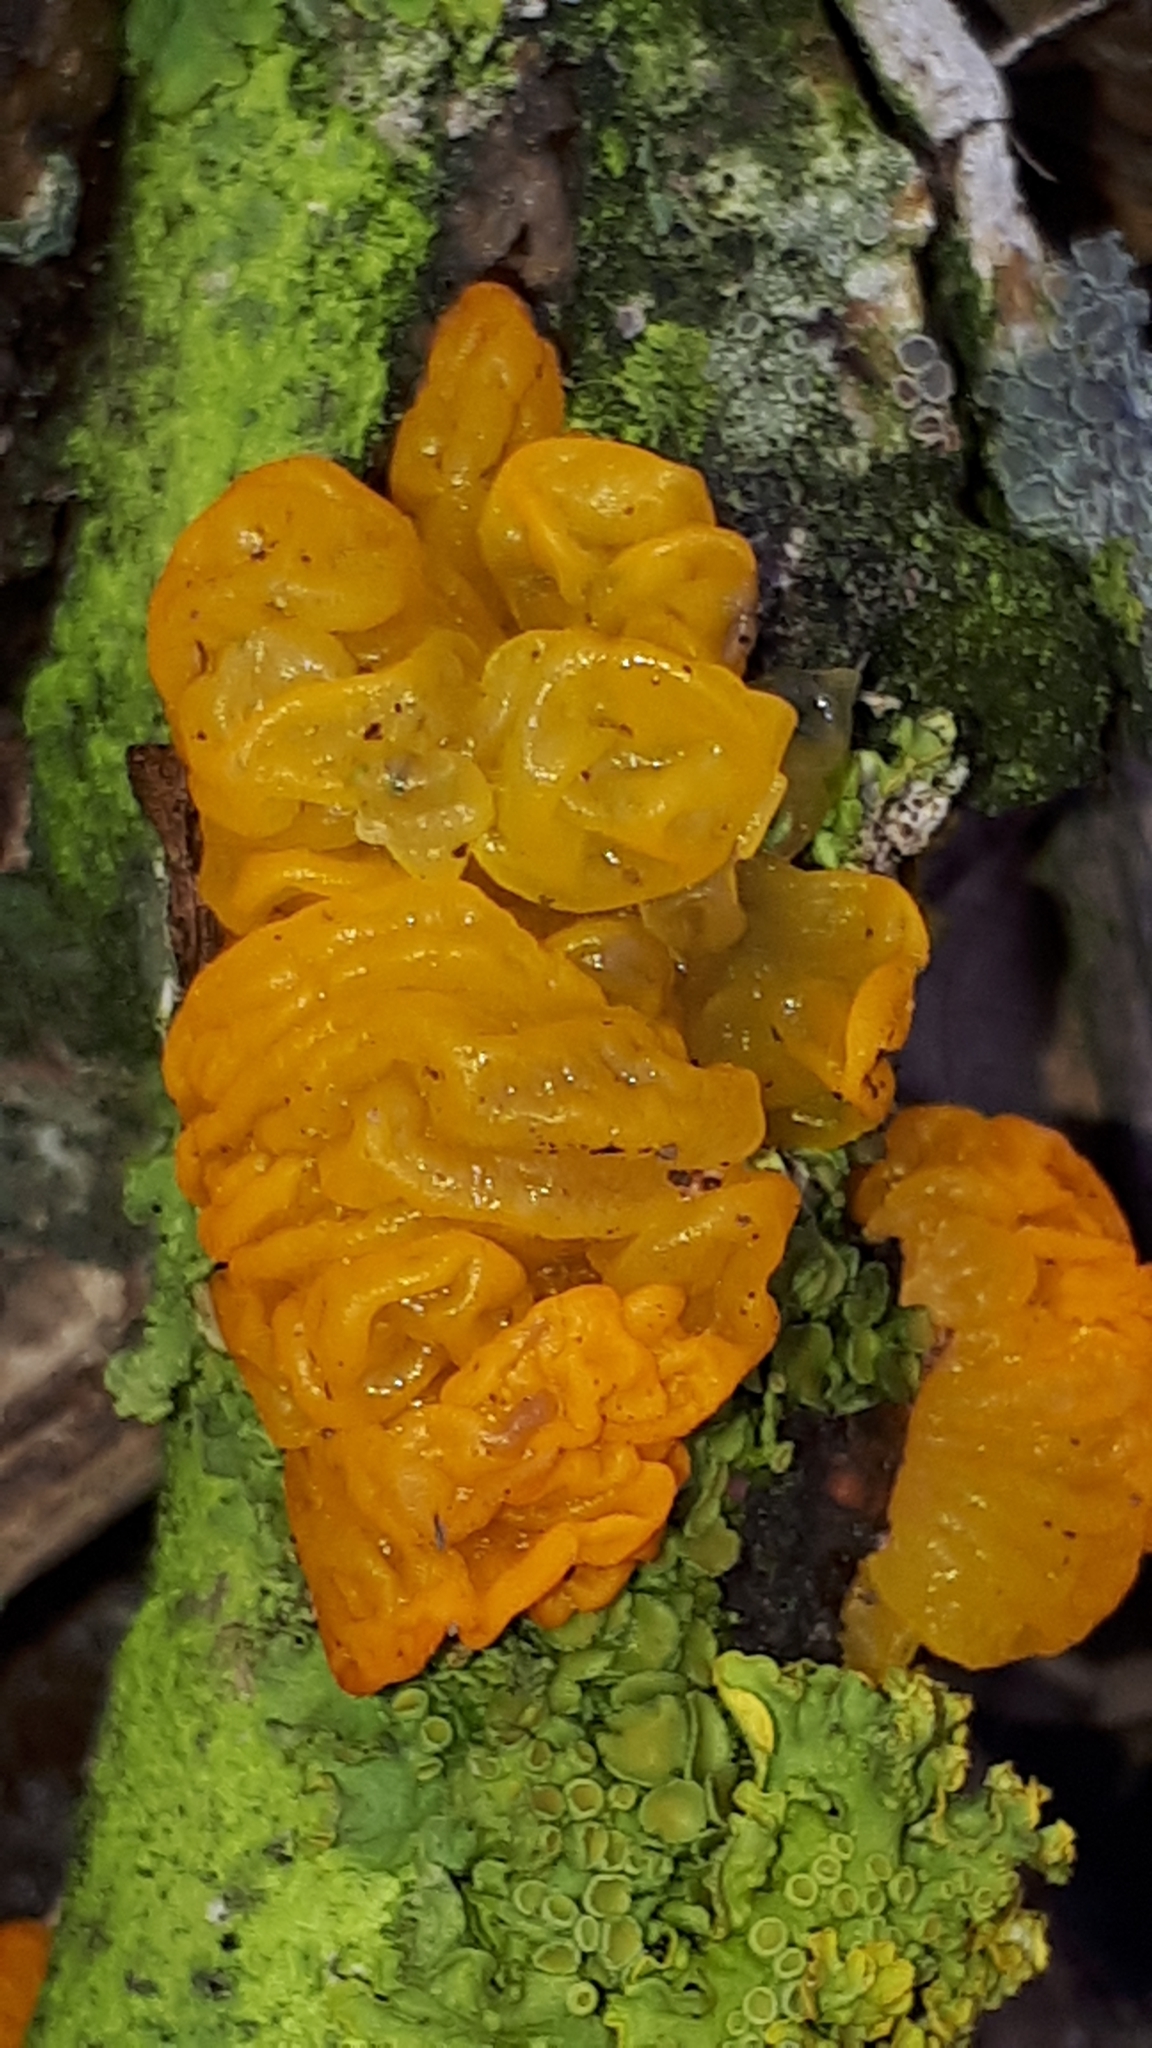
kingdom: Fungi
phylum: Basidiomycota
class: Tremellomycetes
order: Tremellales
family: Tremellaceae
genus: Tremella
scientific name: Tremella mesenterica
